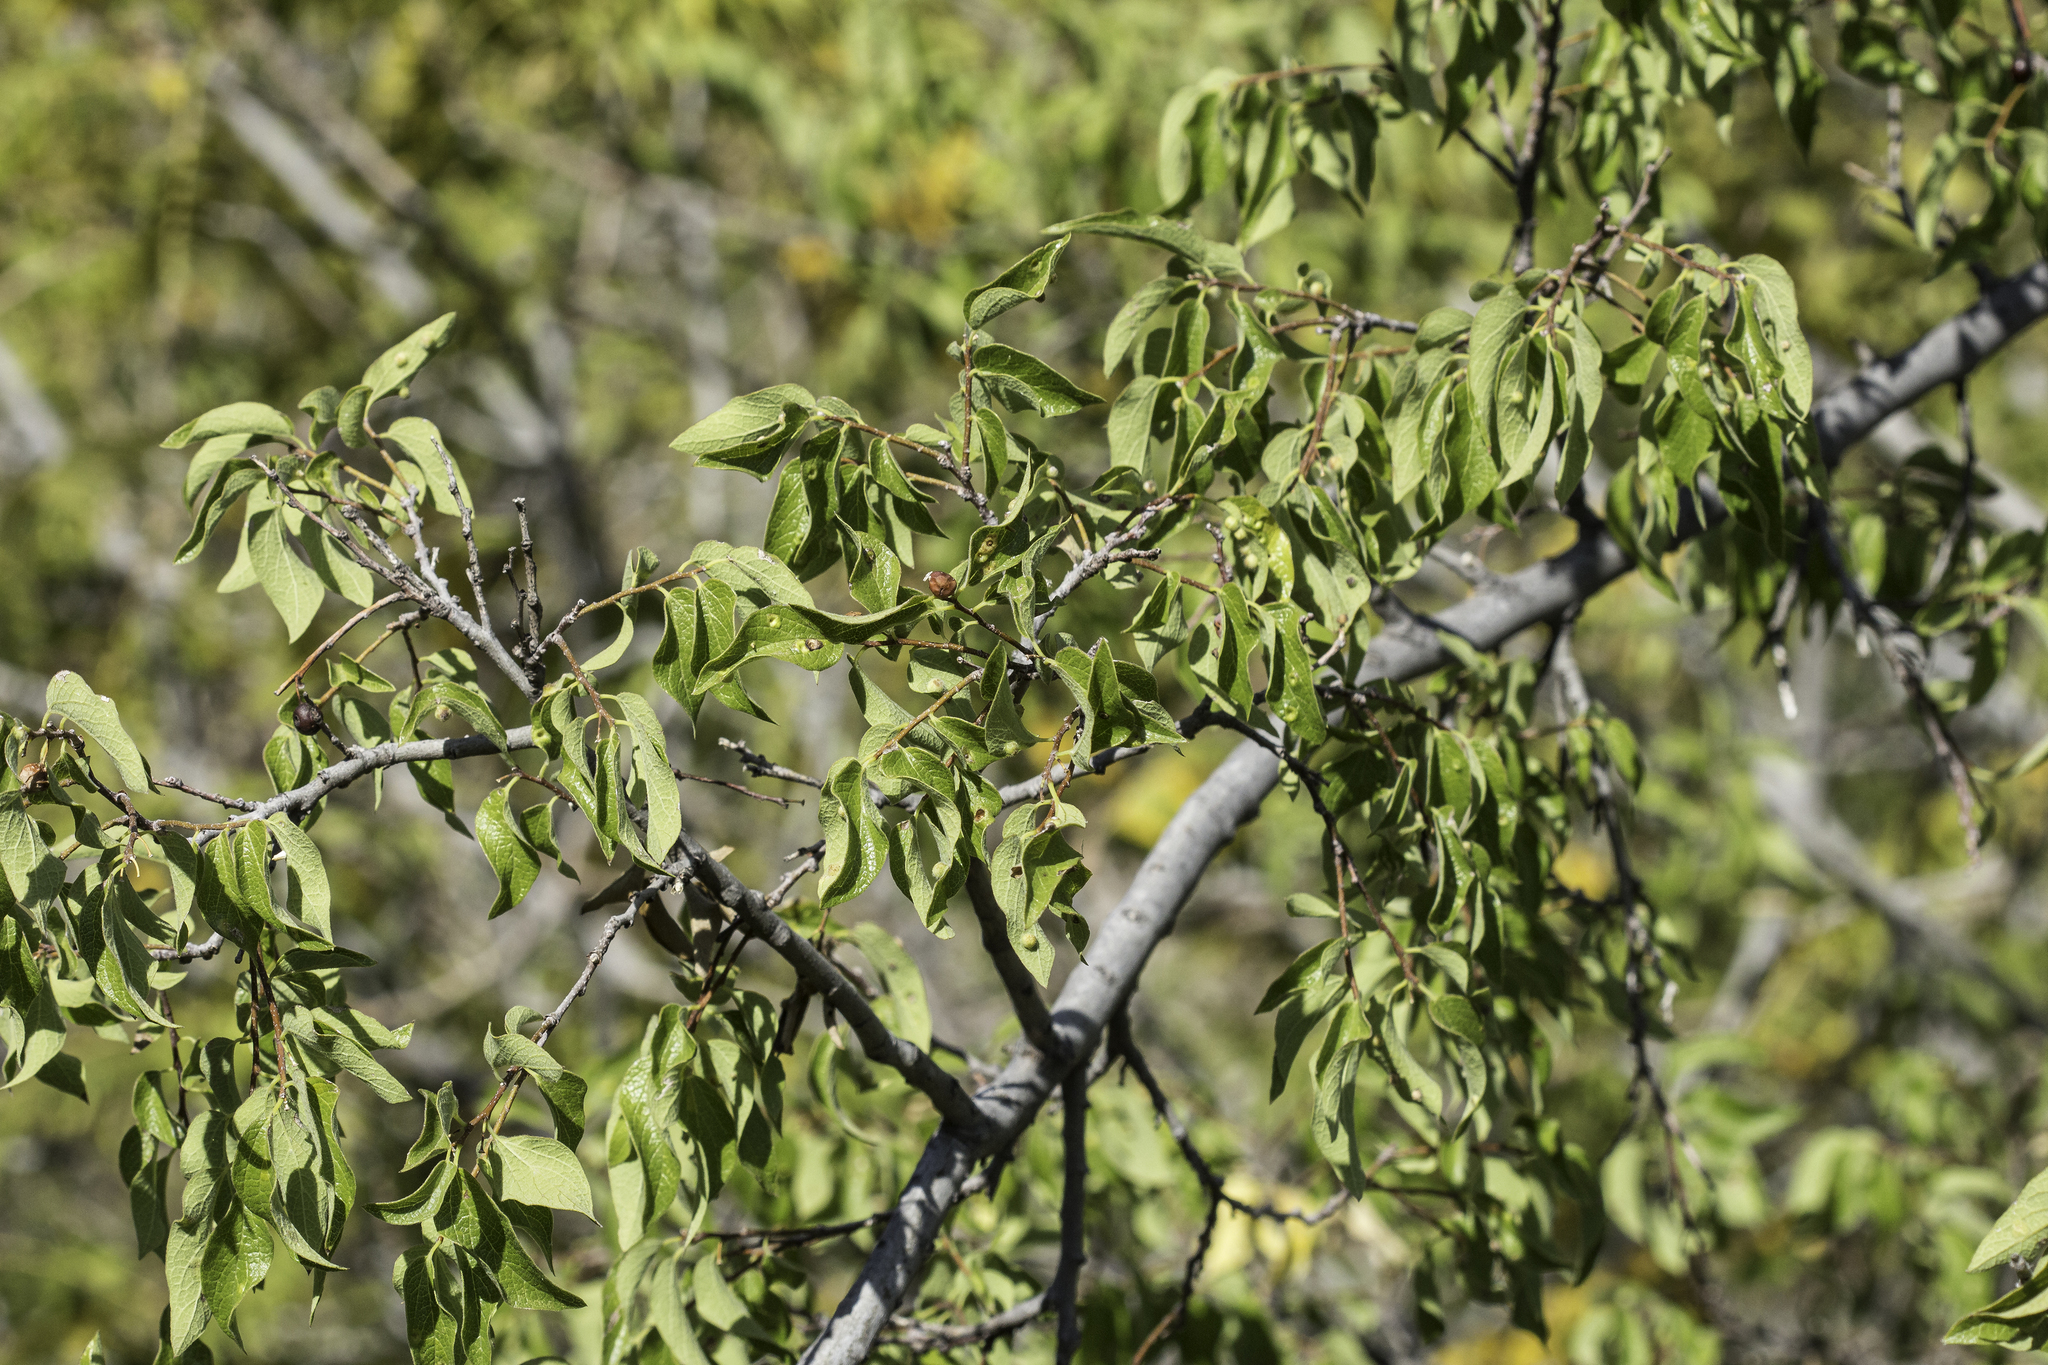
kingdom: Plantae
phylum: Tracheophyta
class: Magnoliopsida
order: Rosales
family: Cannabaceae
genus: Celtis
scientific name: Celtis reticulata
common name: Netleaf hackberry
